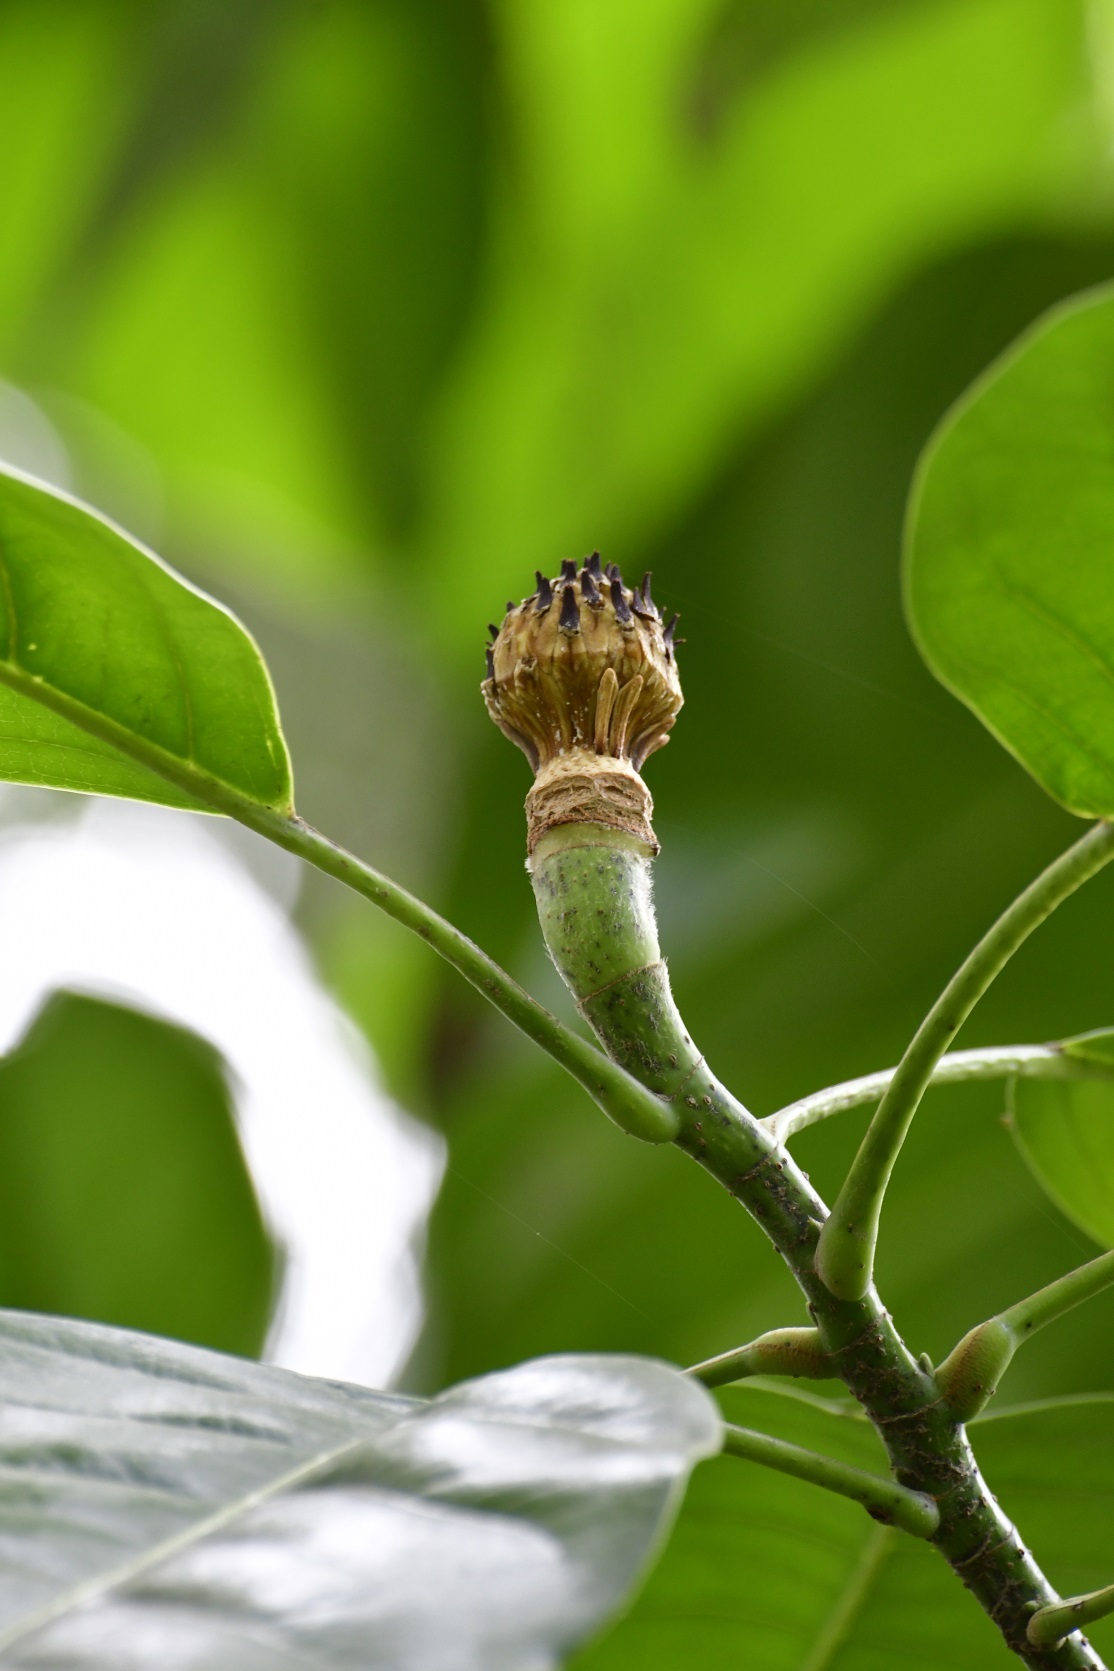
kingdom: Plantae
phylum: Tracheophyta
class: Magnoliopsida
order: Magnoliales
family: Magnoliaceae
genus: Magnolia
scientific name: Magnolia perezfarrerae
